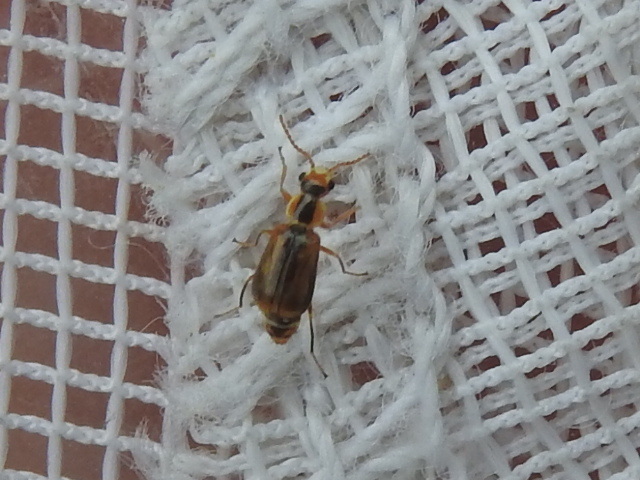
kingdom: Animalia
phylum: Arthropoda
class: Insecta
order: Coleoptera
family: Malachiidae
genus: Attalus
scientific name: Attalus
